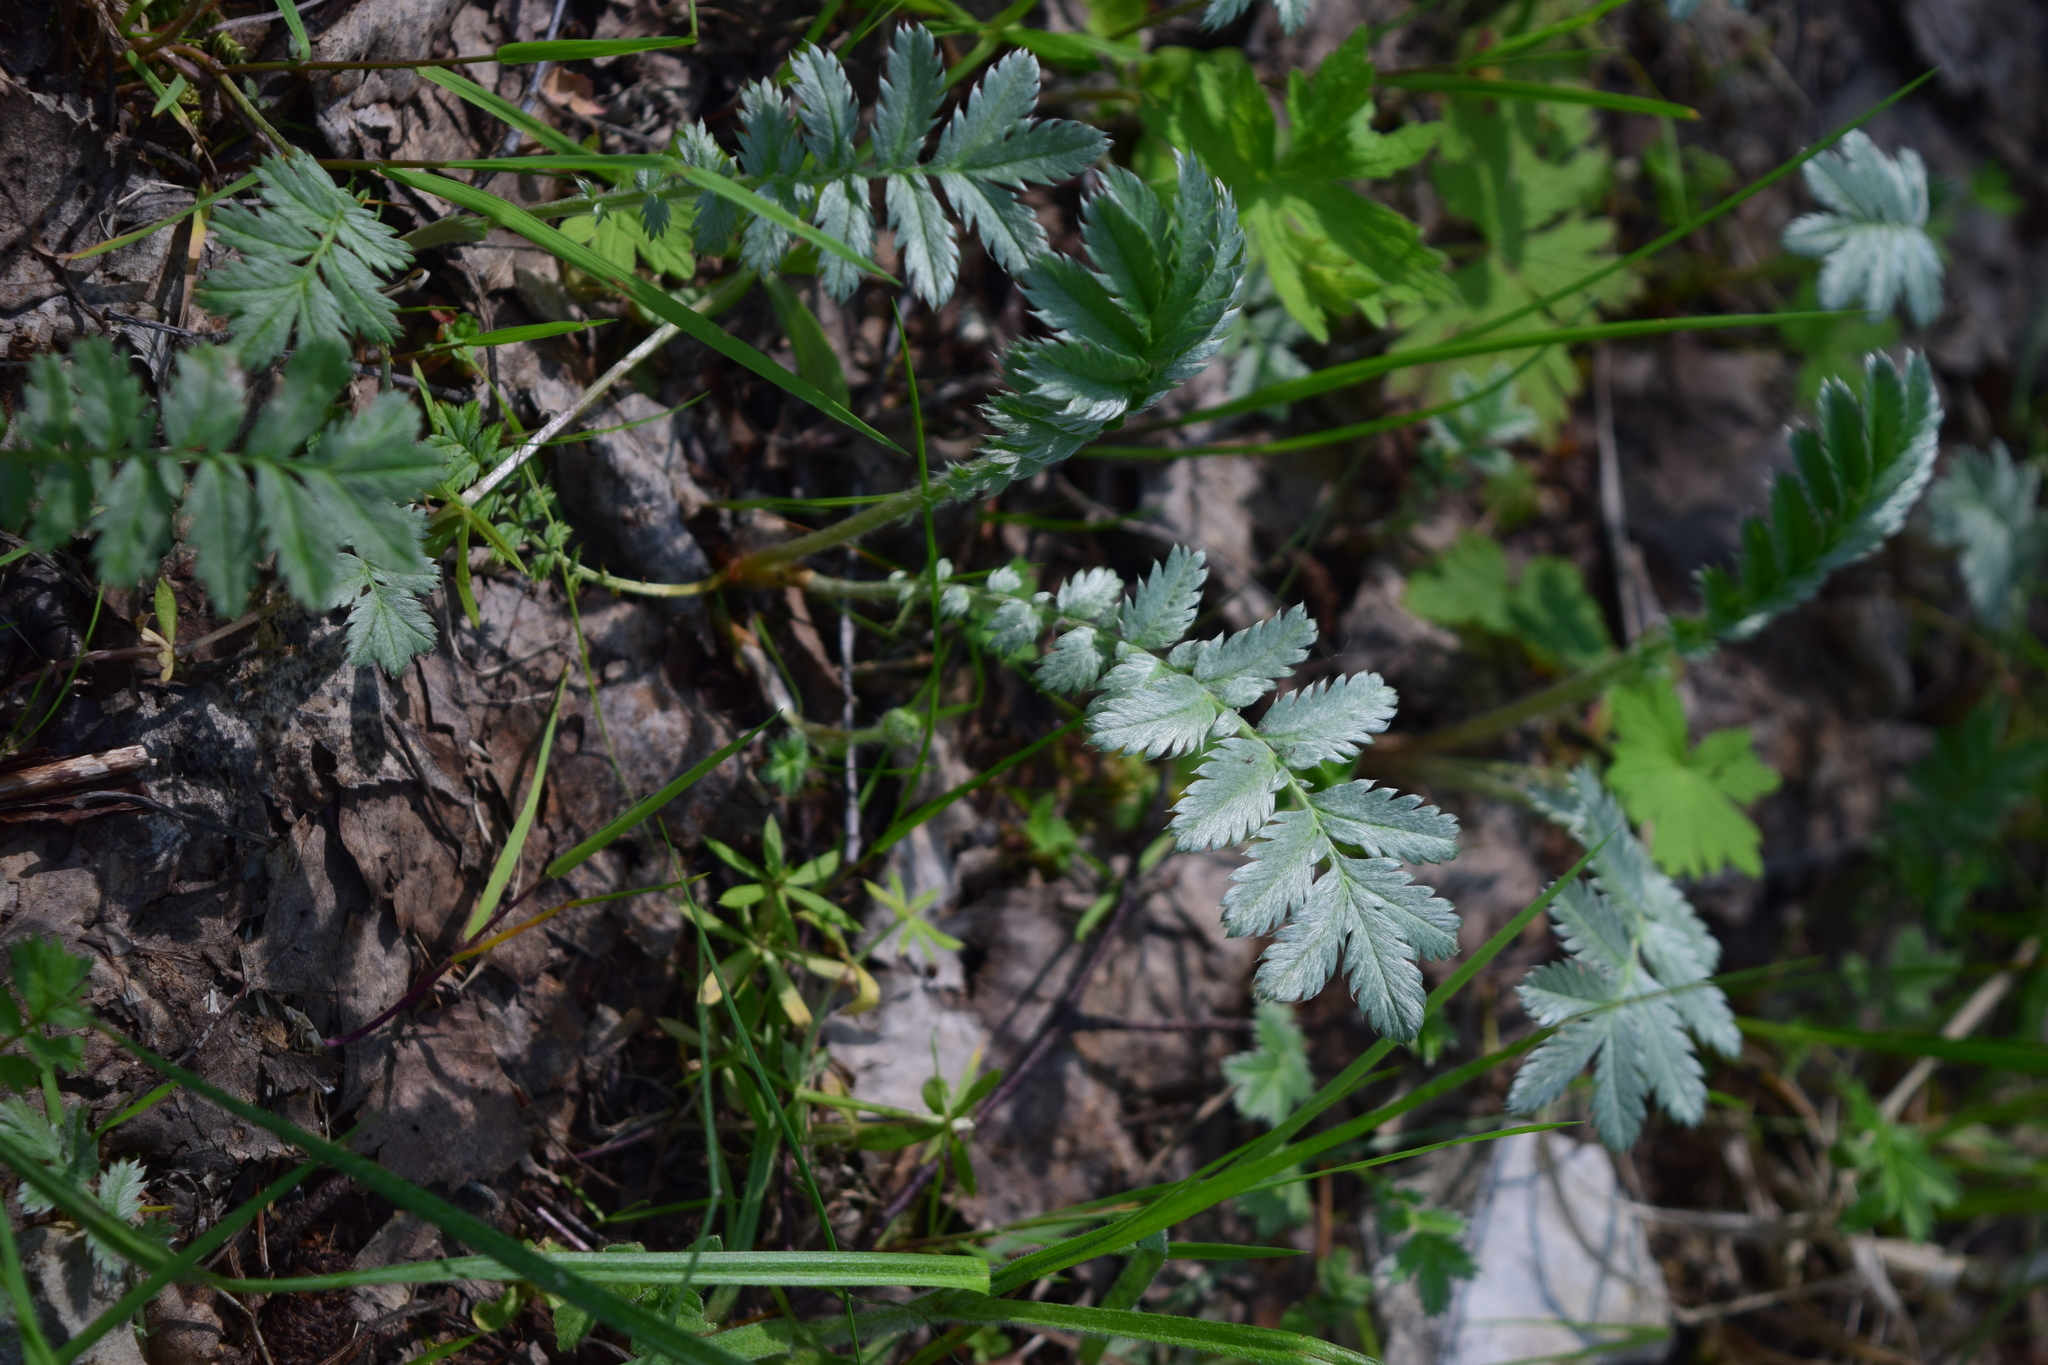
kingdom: Plantae
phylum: Tracheophyta
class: Magnoliopsida
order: Rosales
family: Rosaceae
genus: Argentina
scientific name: Argentina anserina
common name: Common silverweed
